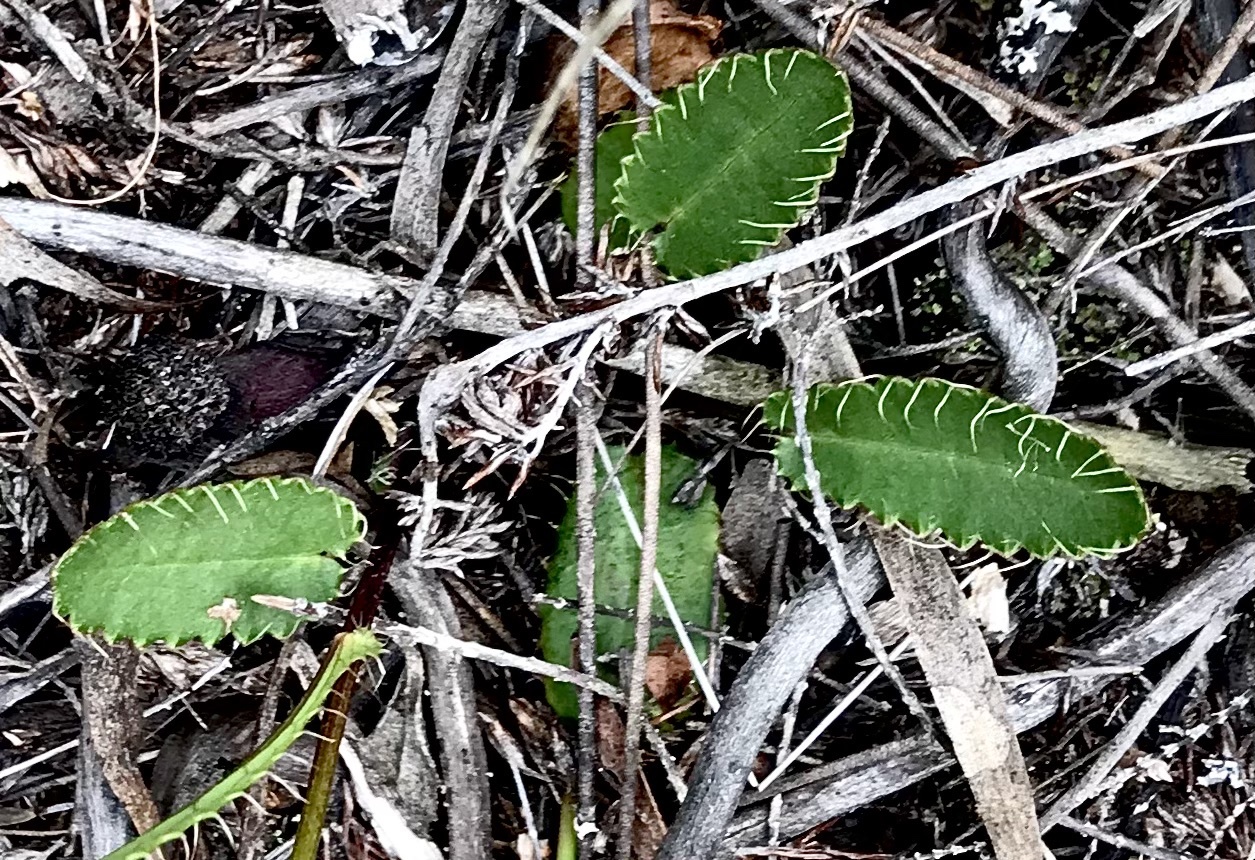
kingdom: Plantae
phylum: Tracheophyta
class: Magnoliopsida
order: Apiales
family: Apiaceae
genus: Alepidea
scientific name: Alepidea capensis
